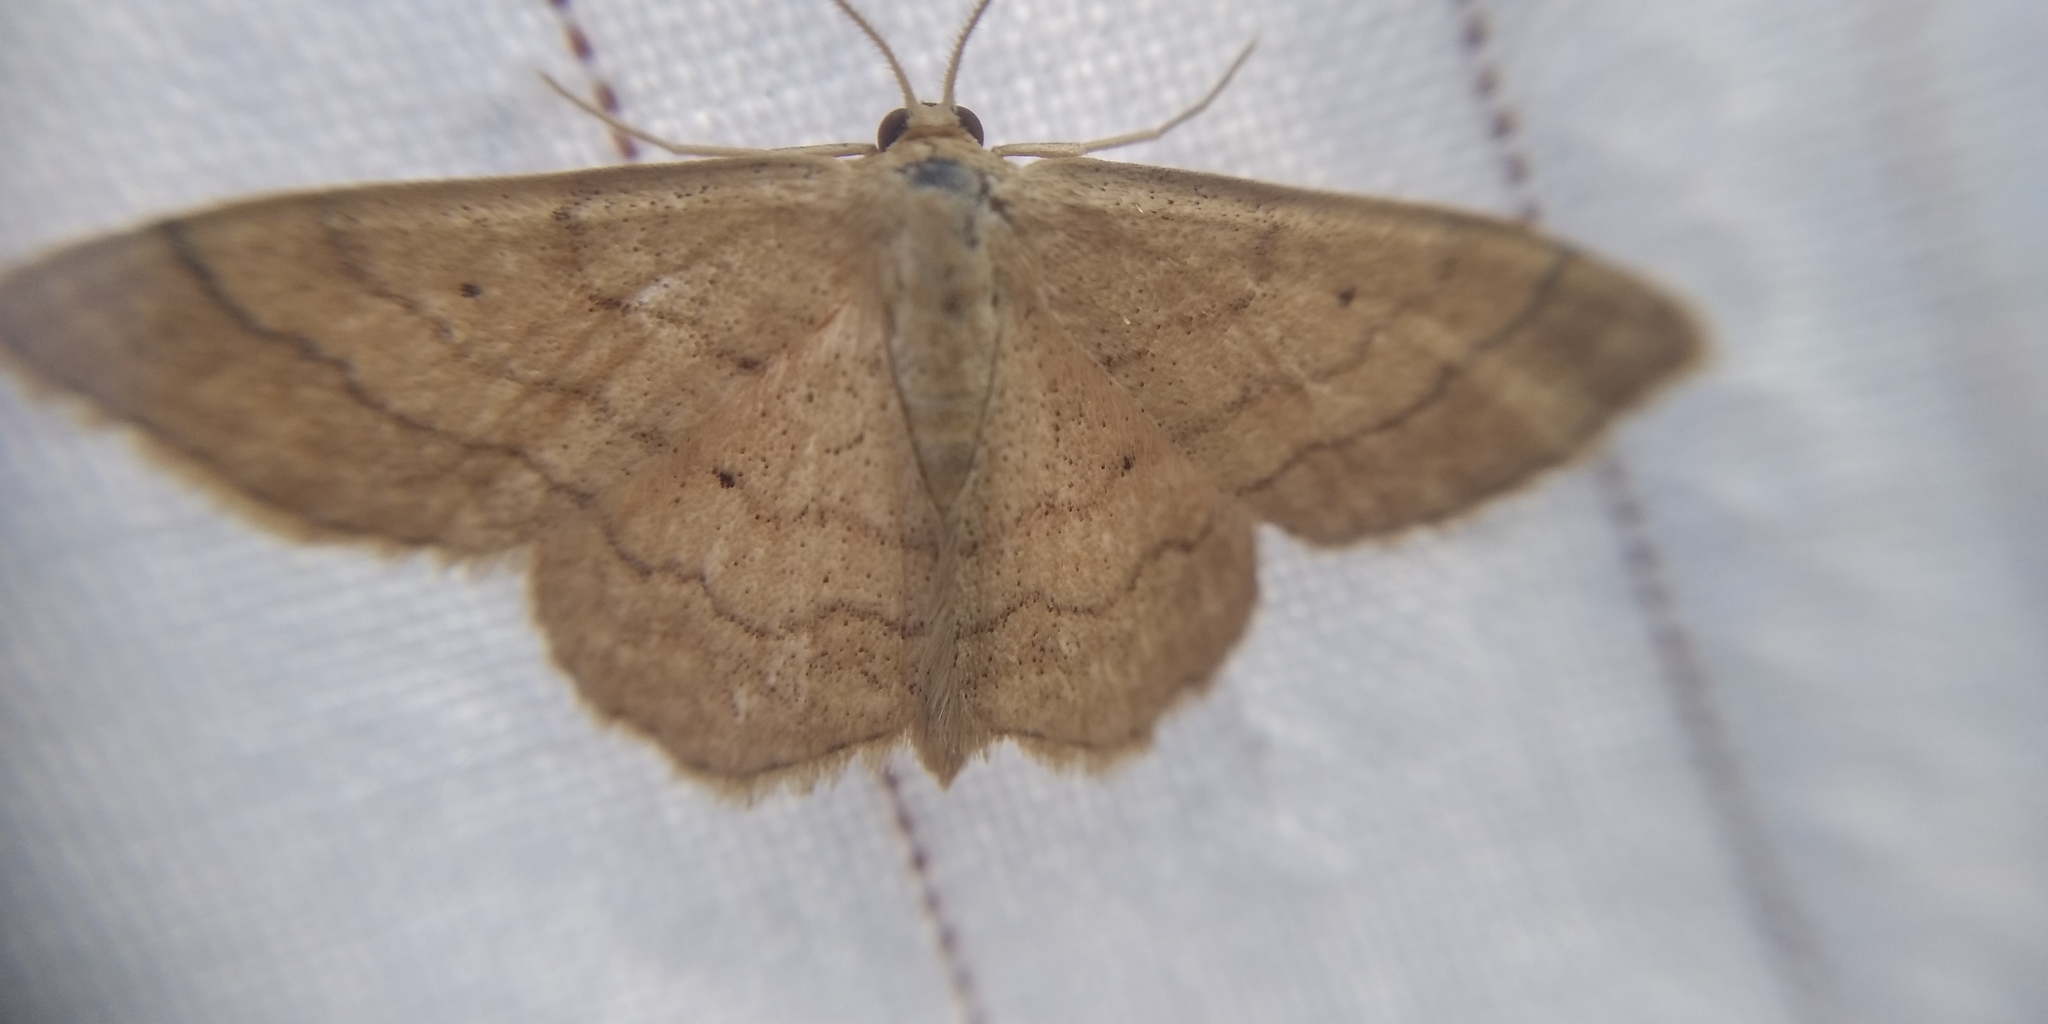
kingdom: Animalia
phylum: Arthropoda
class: Insecta
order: Lepidoptera
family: Geometridae
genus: Scopula
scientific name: Scopula rubiginata
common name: Tawny wave
